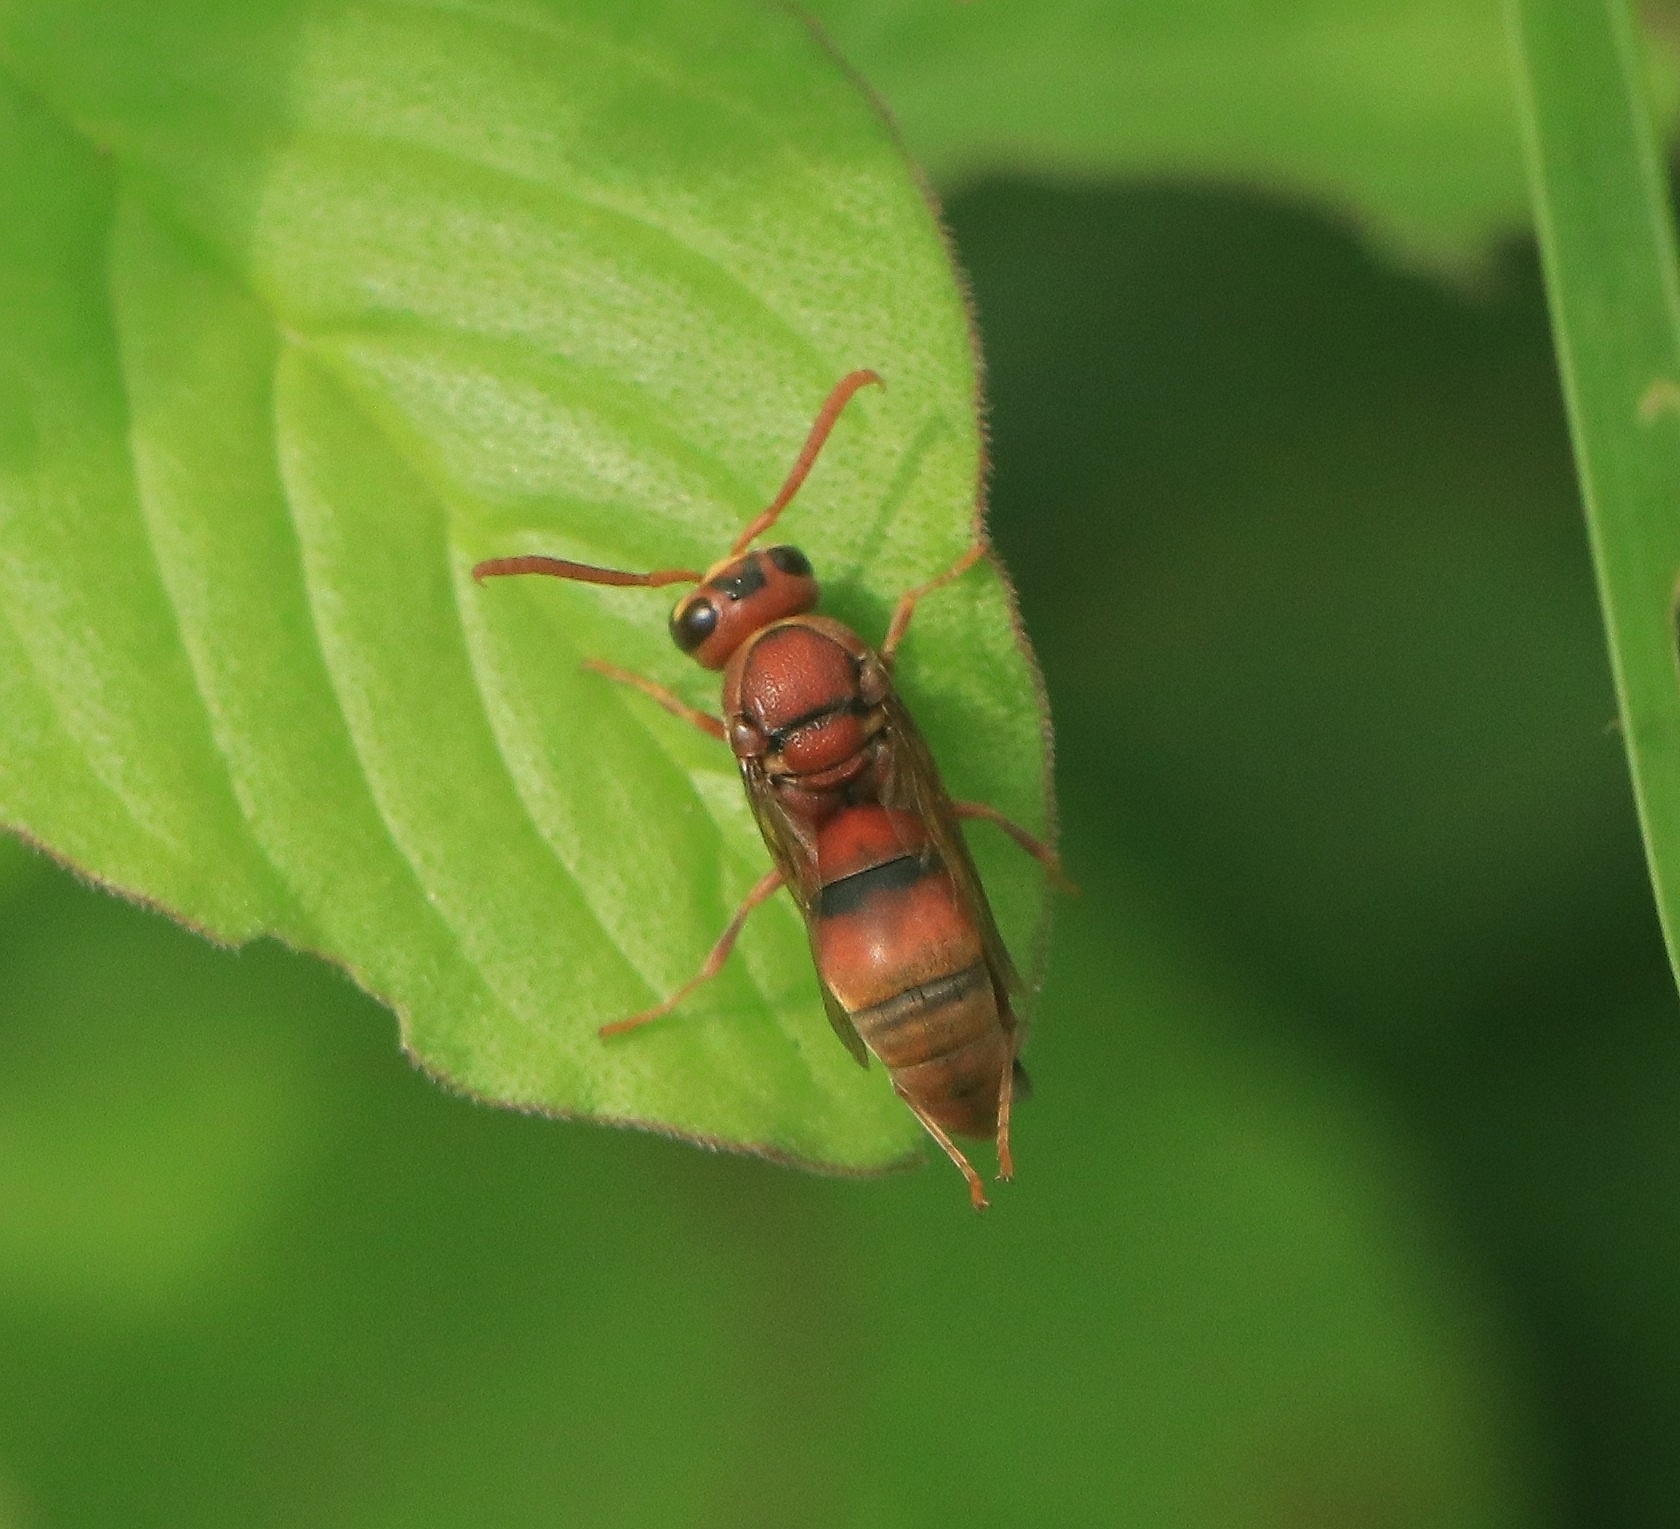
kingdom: Animalia
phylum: Arthropoda
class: Insecta
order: Hymenoptera
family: Eumenidae
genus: Antodynerus
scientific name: Antodynerus limbatus
